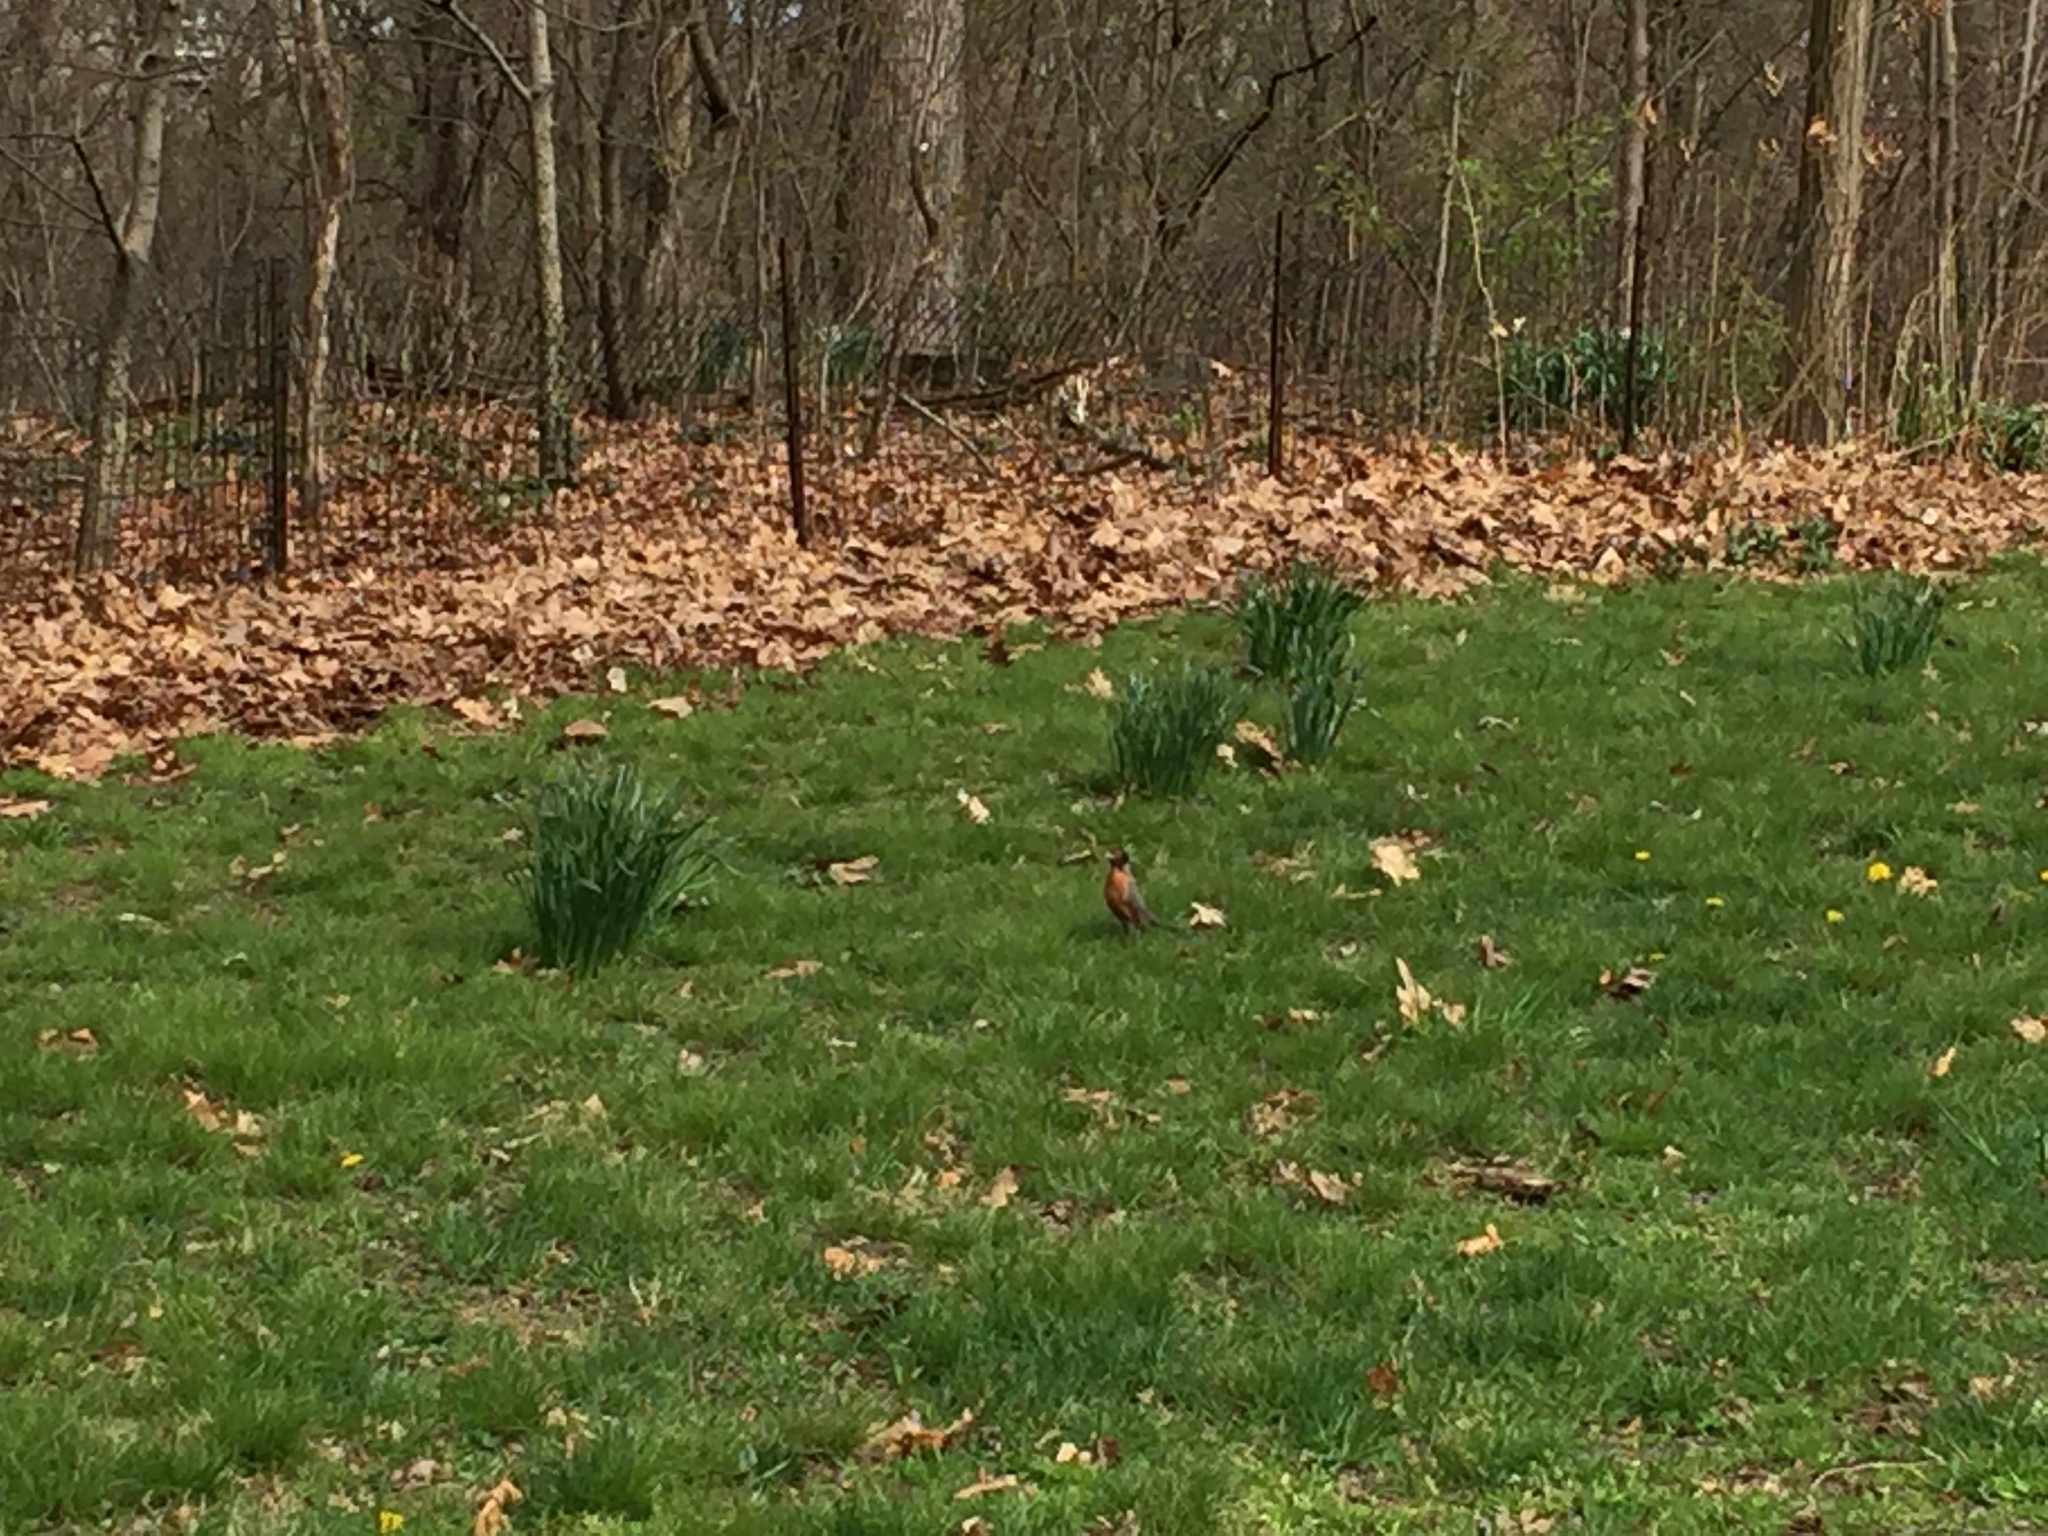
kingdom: Animalia
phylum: Chordata
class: Aves
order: Passeriformes
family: Turdidae
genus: Turdus
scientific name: Turdus migratorius
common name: American robin
